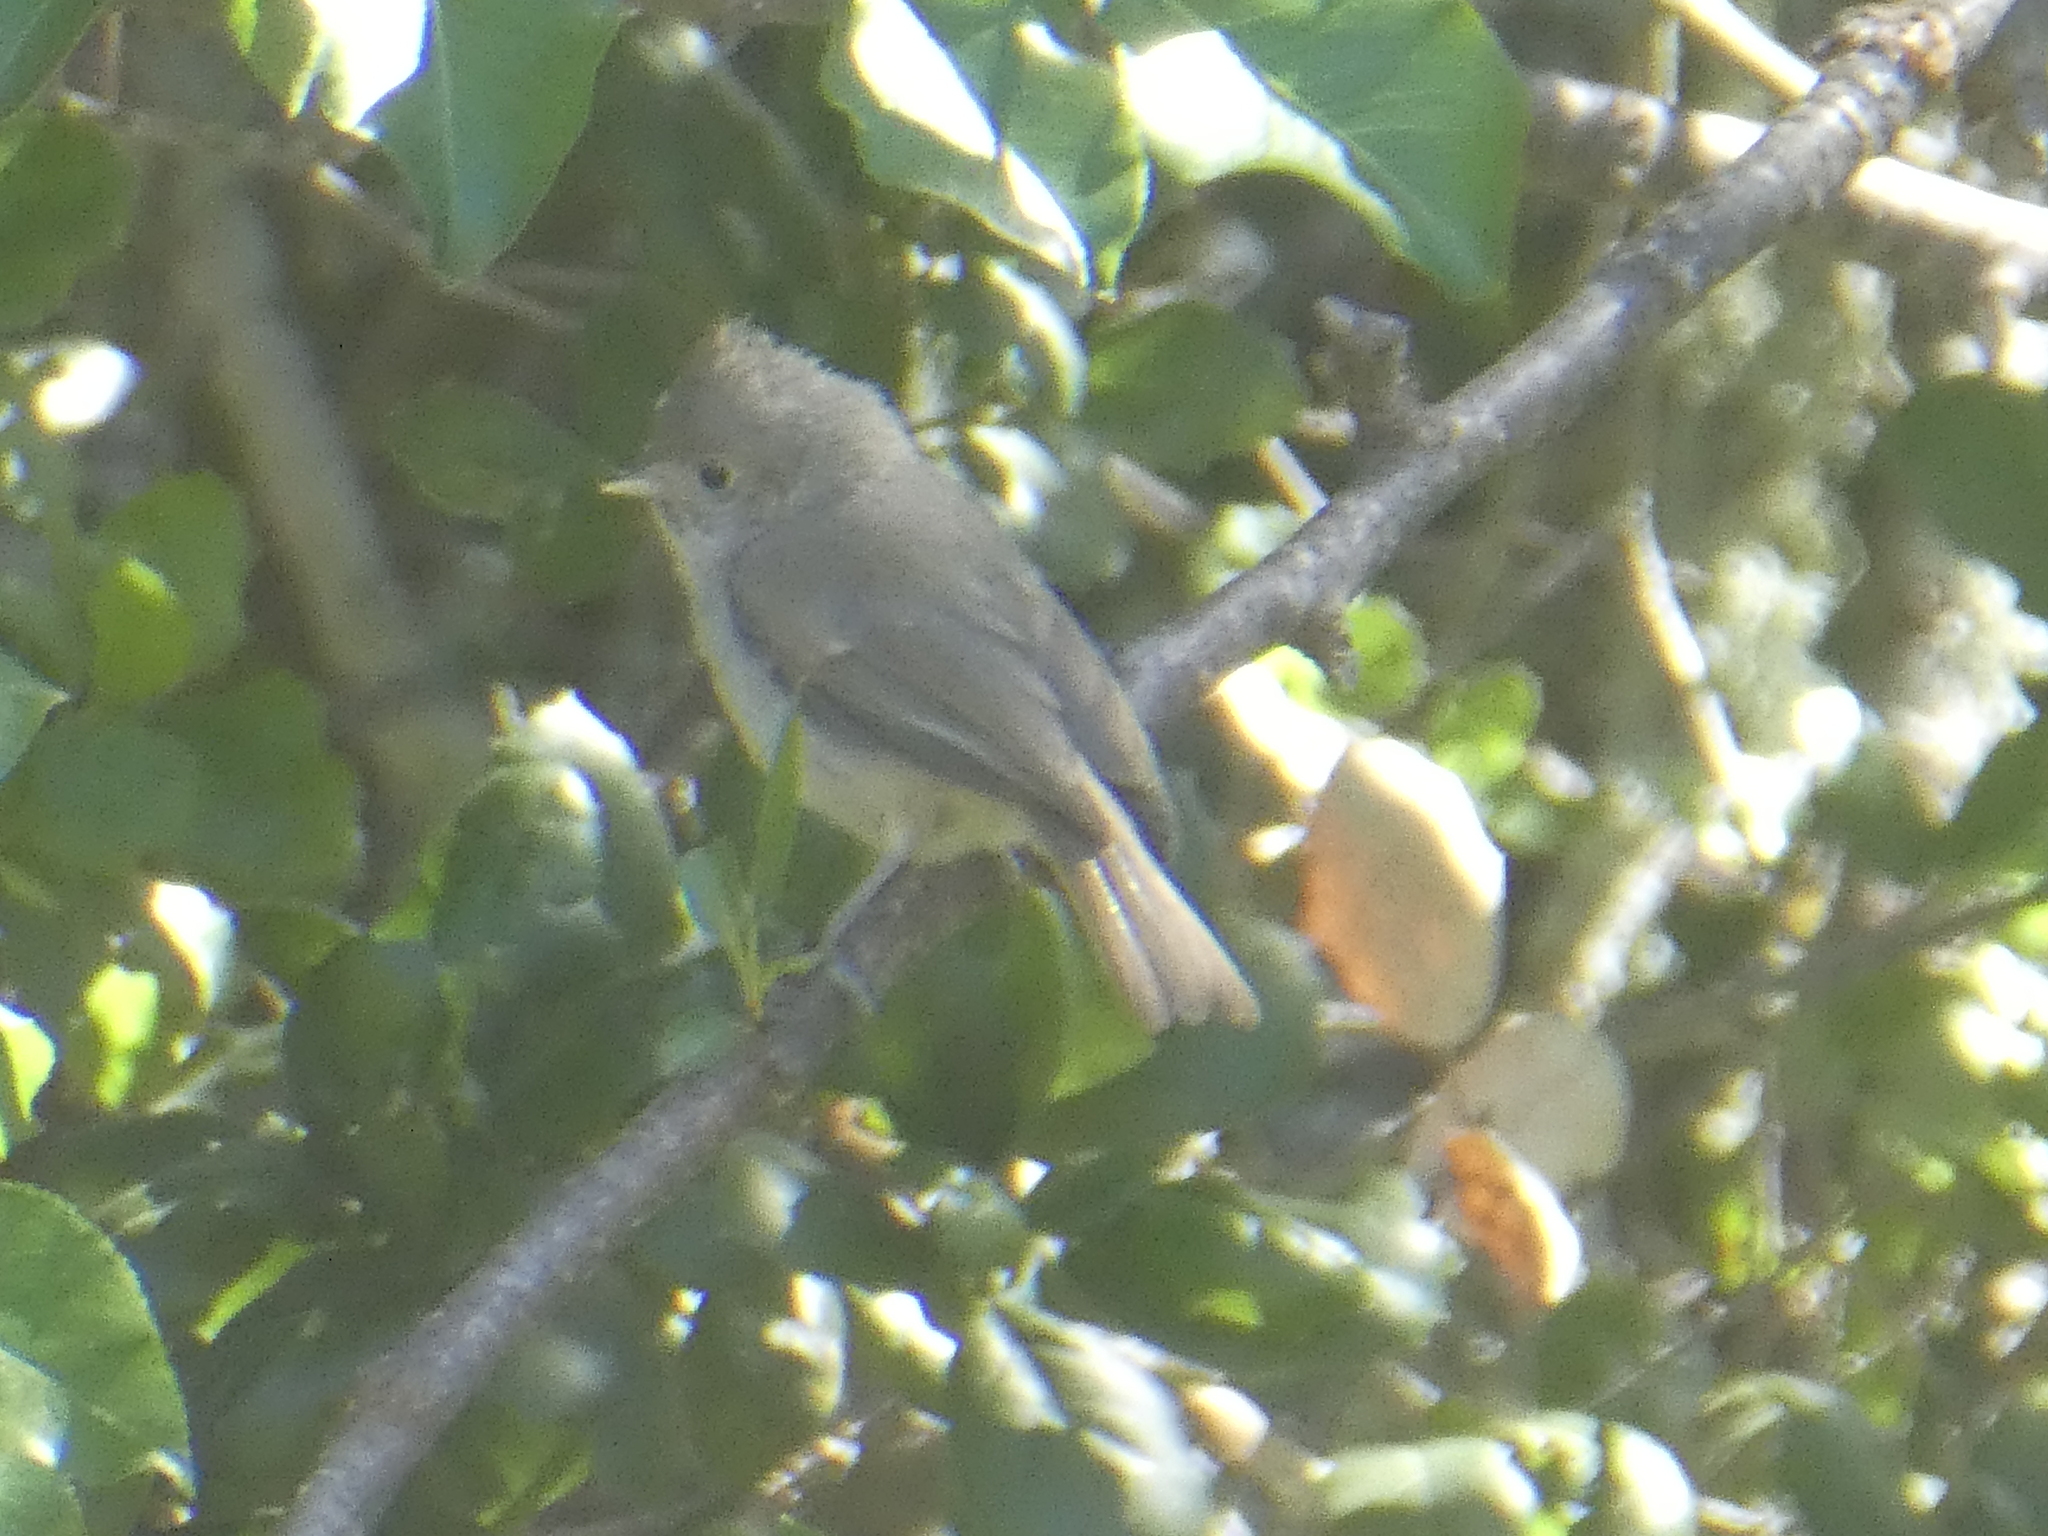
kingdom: Animalia
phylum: Chordata
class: Aves
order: Passeriformes
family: Paridae
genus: Baeolophus
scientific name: Baeolophus inornatus
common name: Oak titmouse
